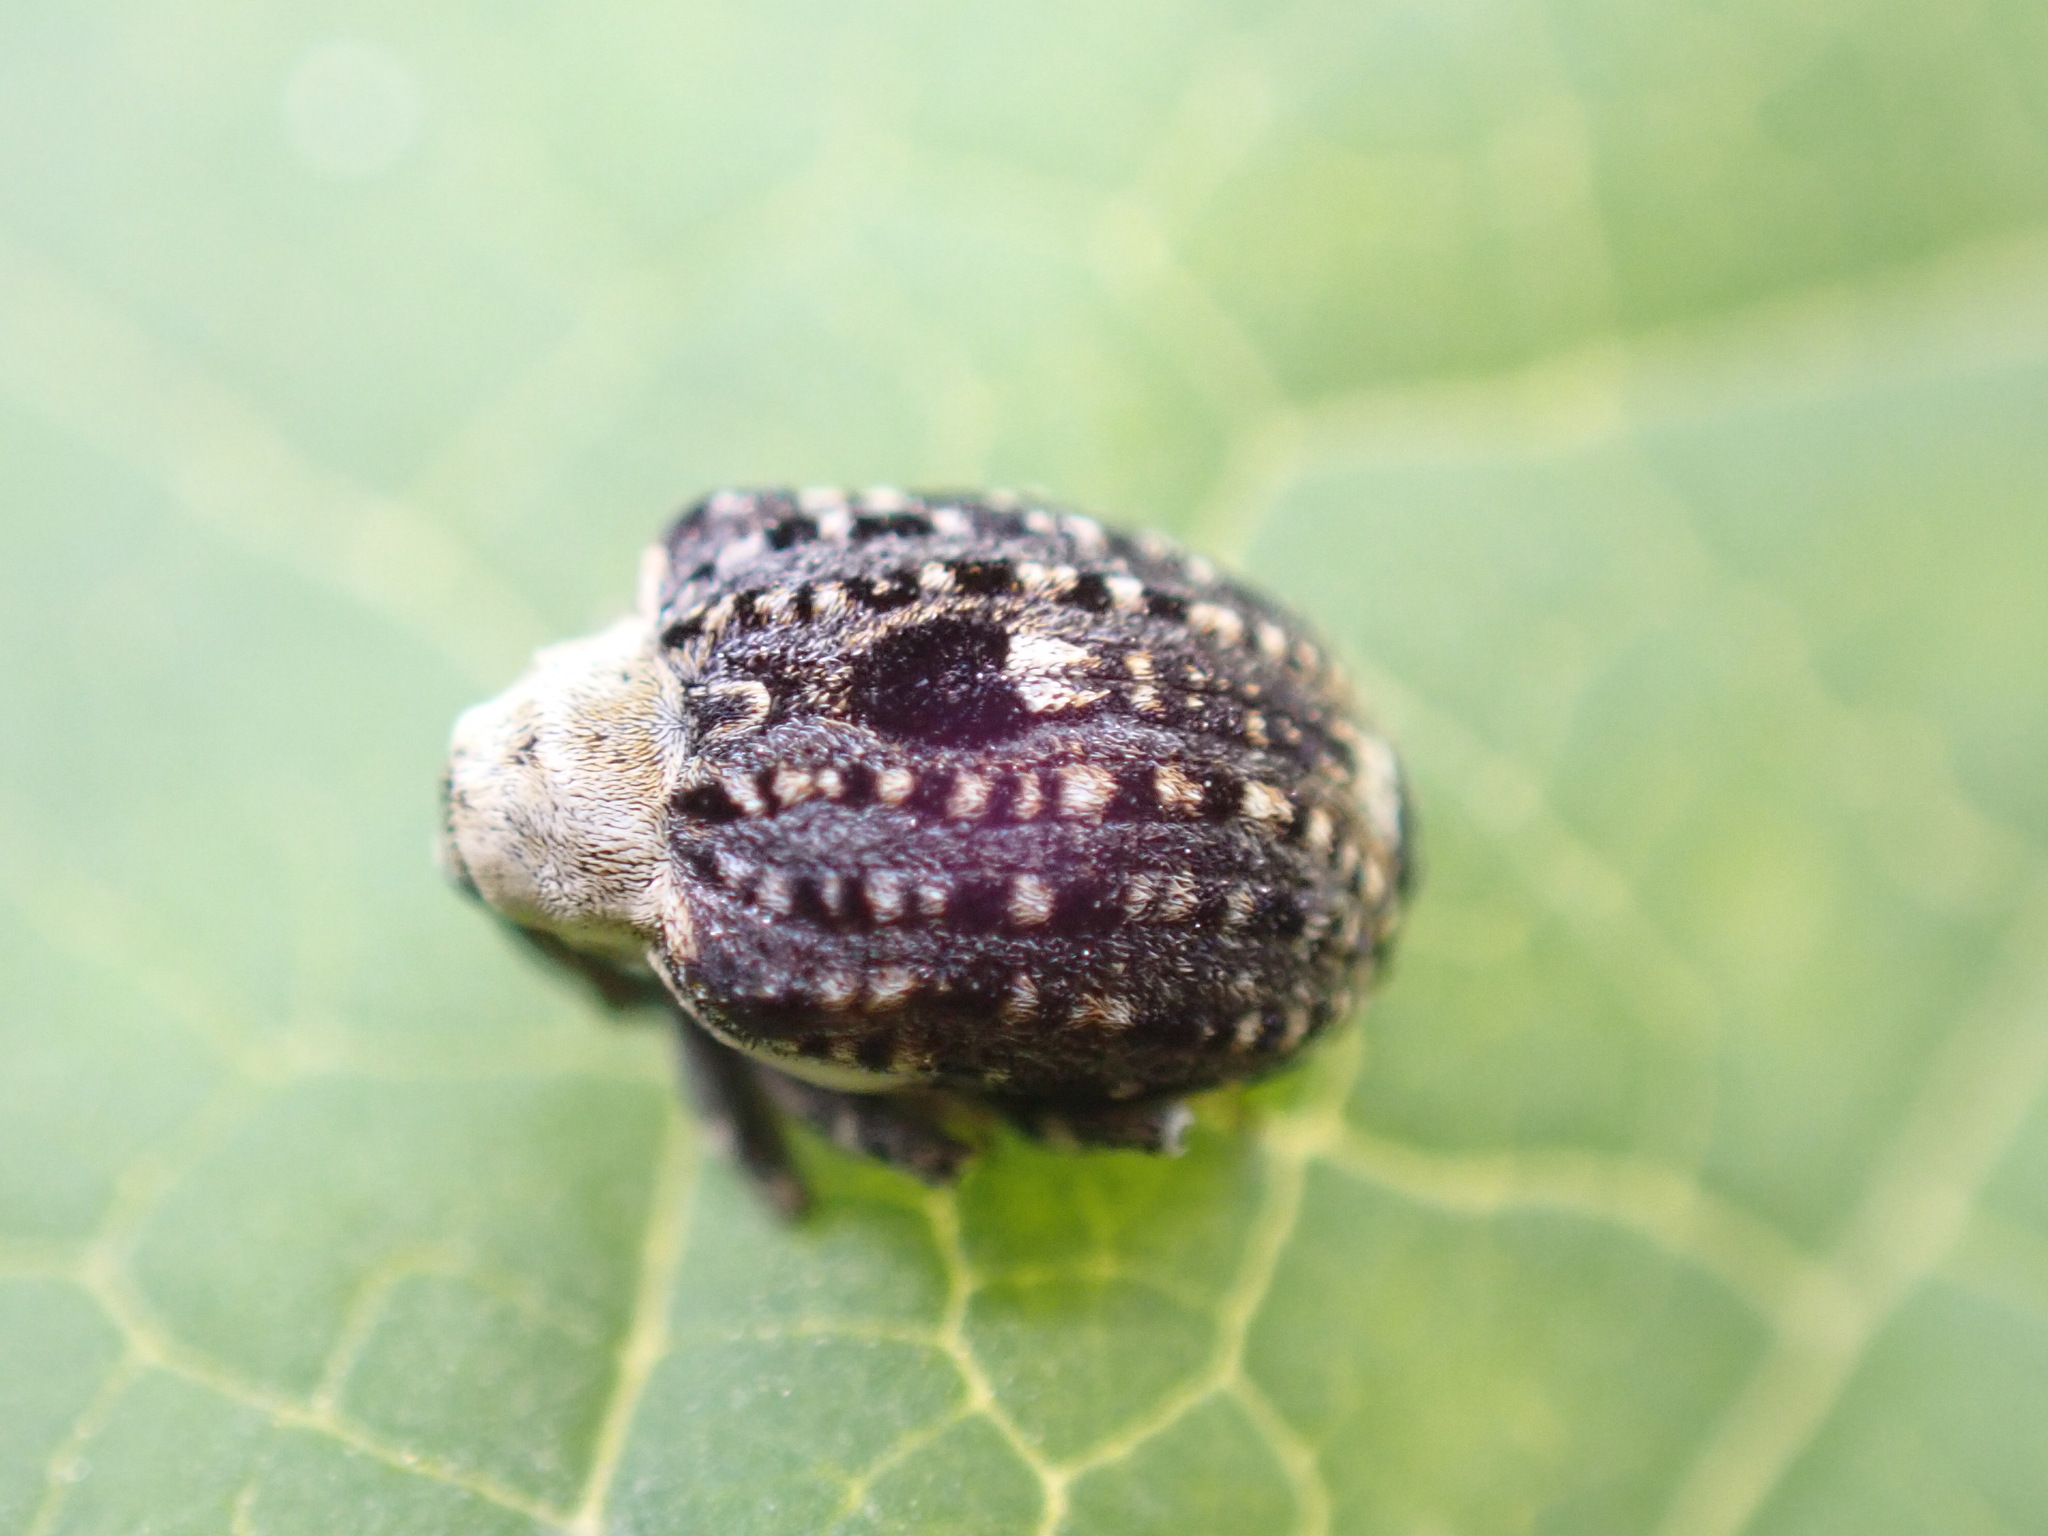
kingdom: Animalia
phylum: Arthropoda
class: Insecta
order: Coleoptera
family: Curculionidae
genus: Cionus
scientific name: Cionus scrophulariae
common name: Common figwort weevil
